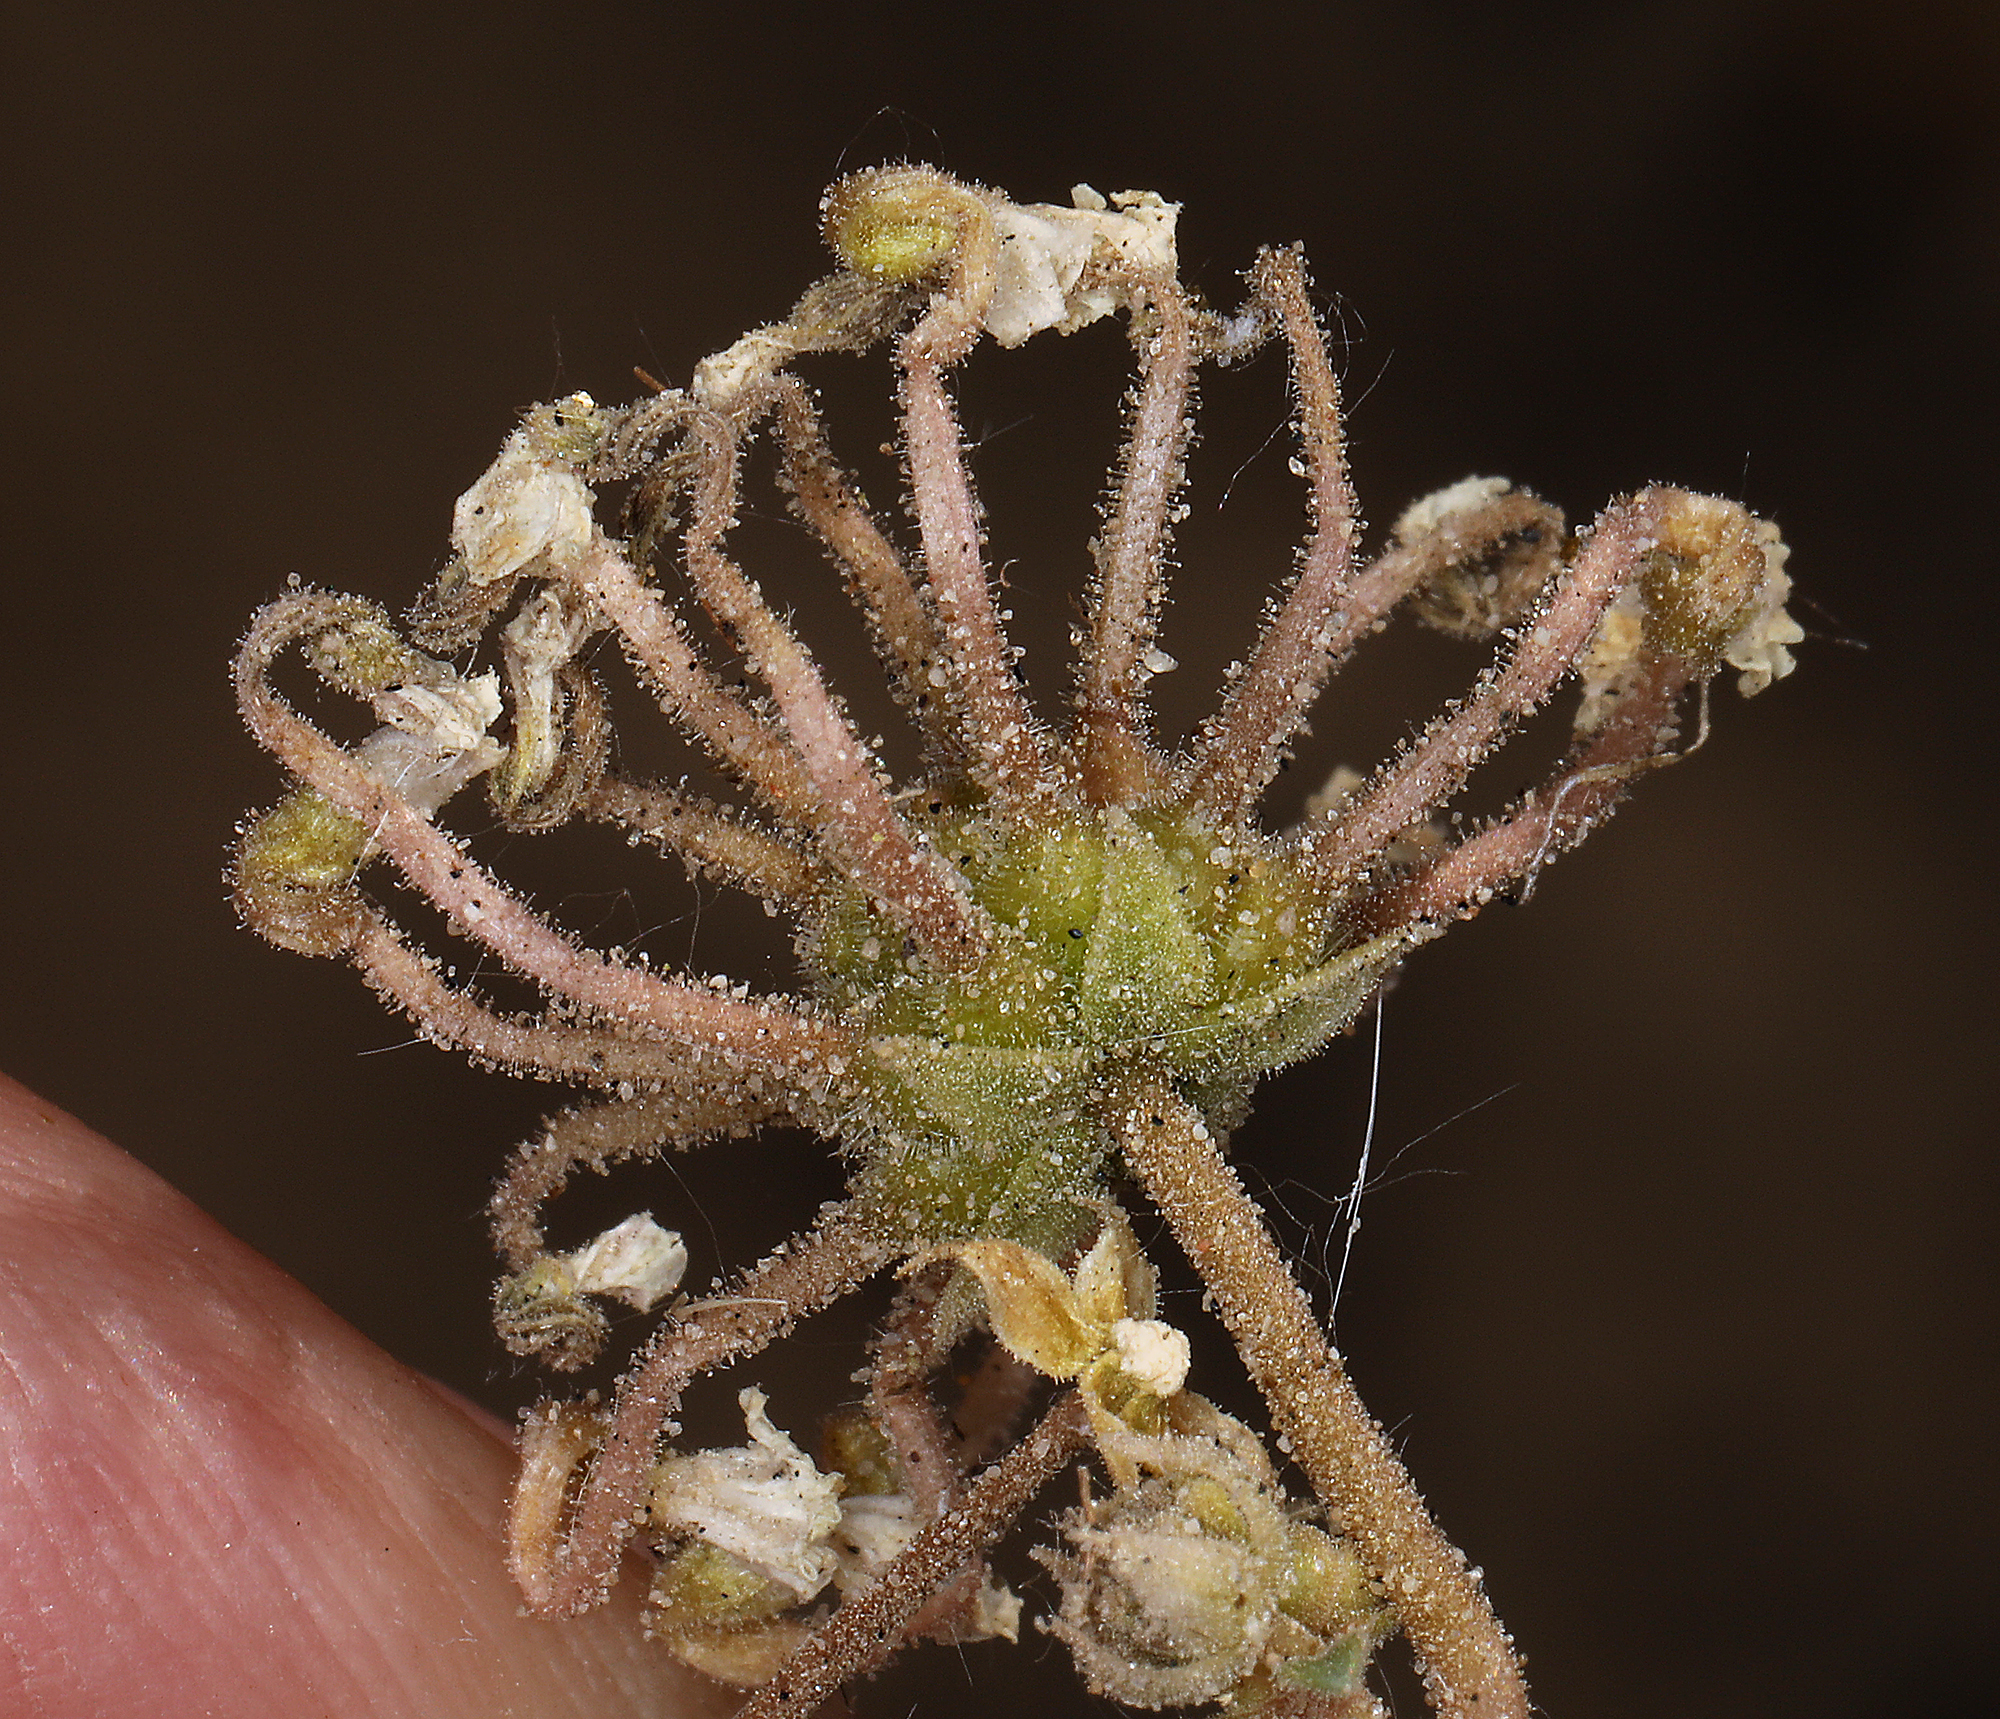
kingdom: Plantae
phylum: Tracheophyta
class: Magnoliopsida
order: Caryophyllales
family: Nyctaginaceae
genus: Abronia
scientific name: Abronia turbinata
